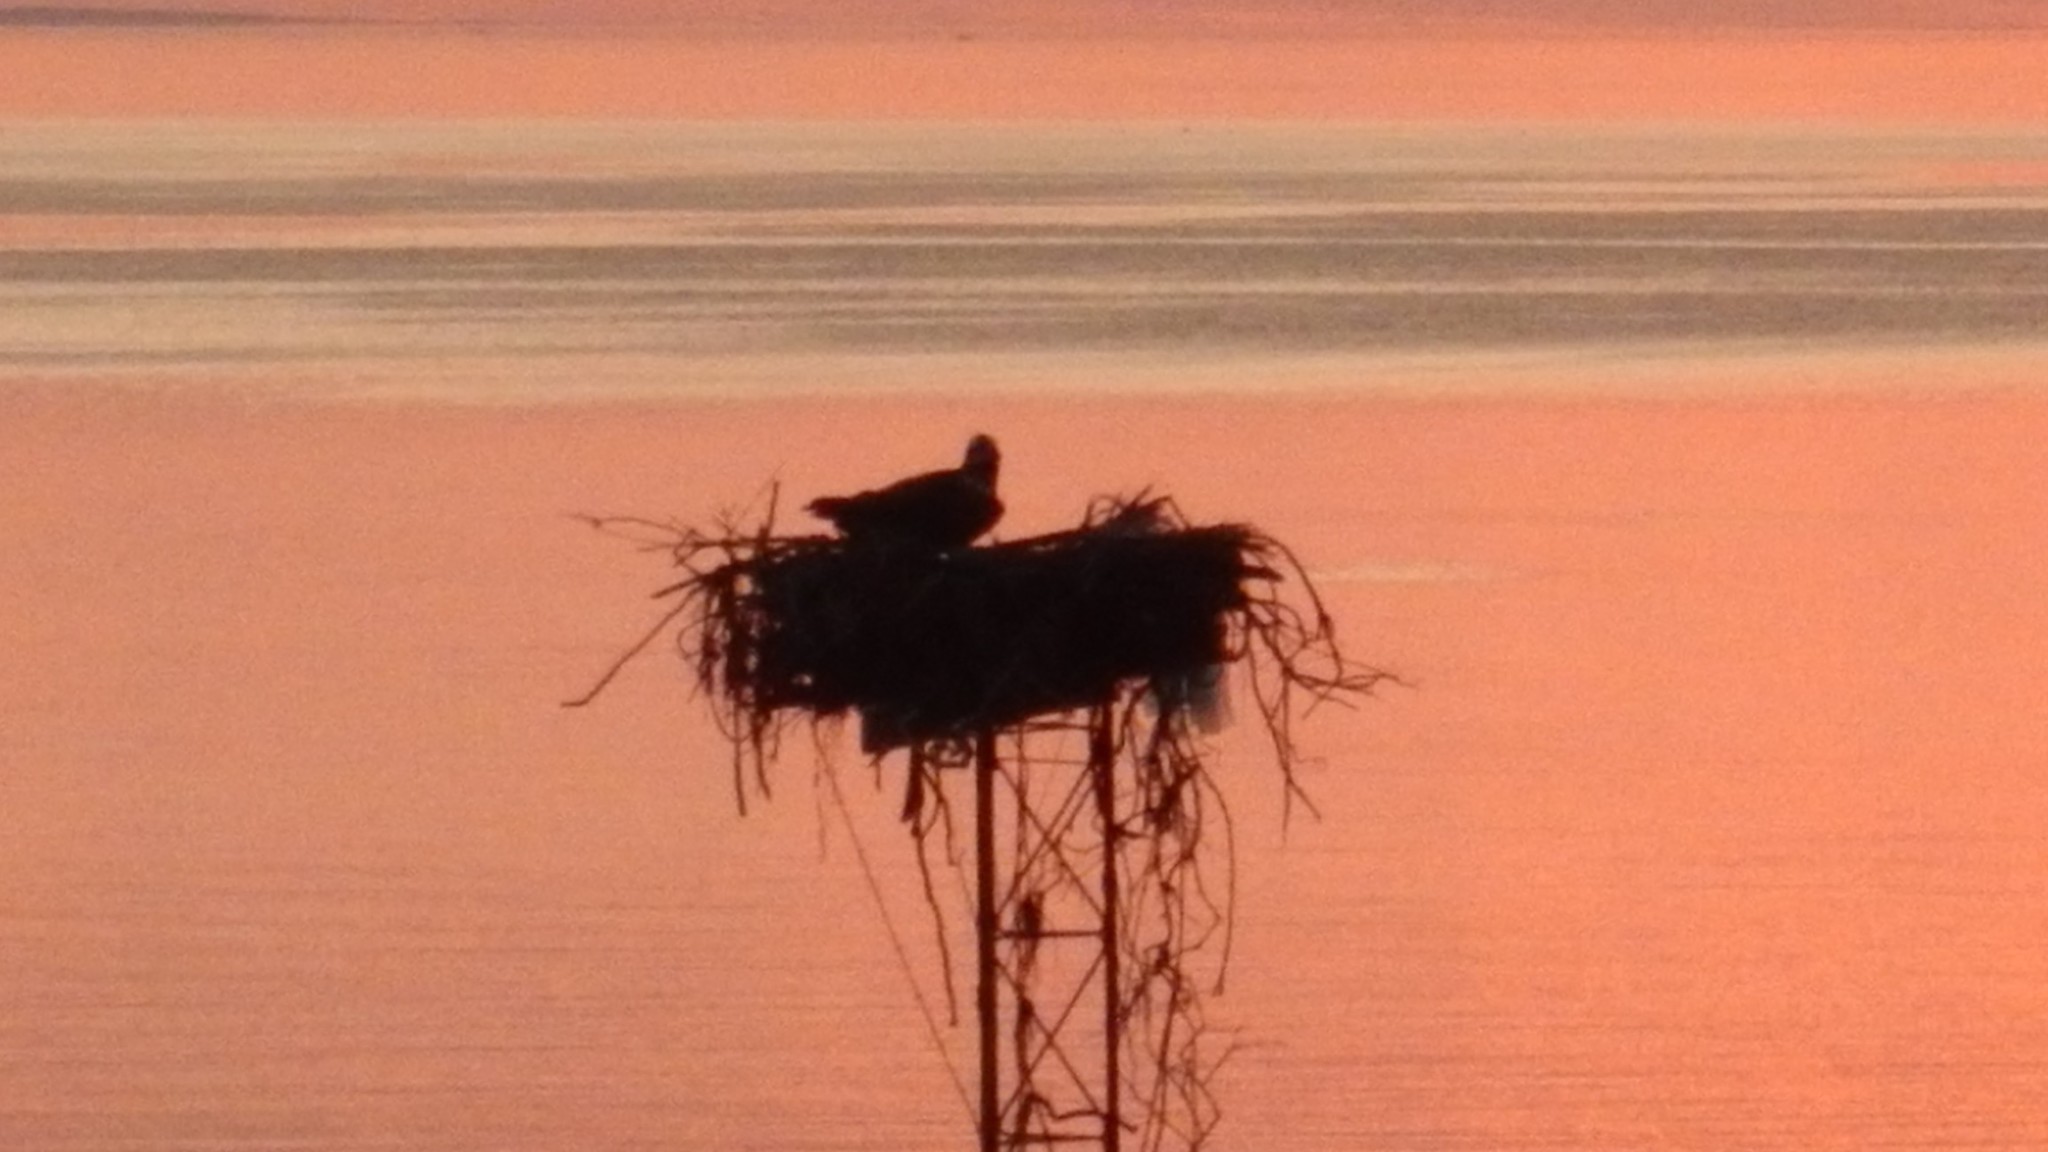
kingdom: Animalia
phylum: Chordata
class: Aves
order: Accipitriformes
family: Pandionidae
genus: Pandion
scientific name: Pandion haliaetus
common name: Osprey
